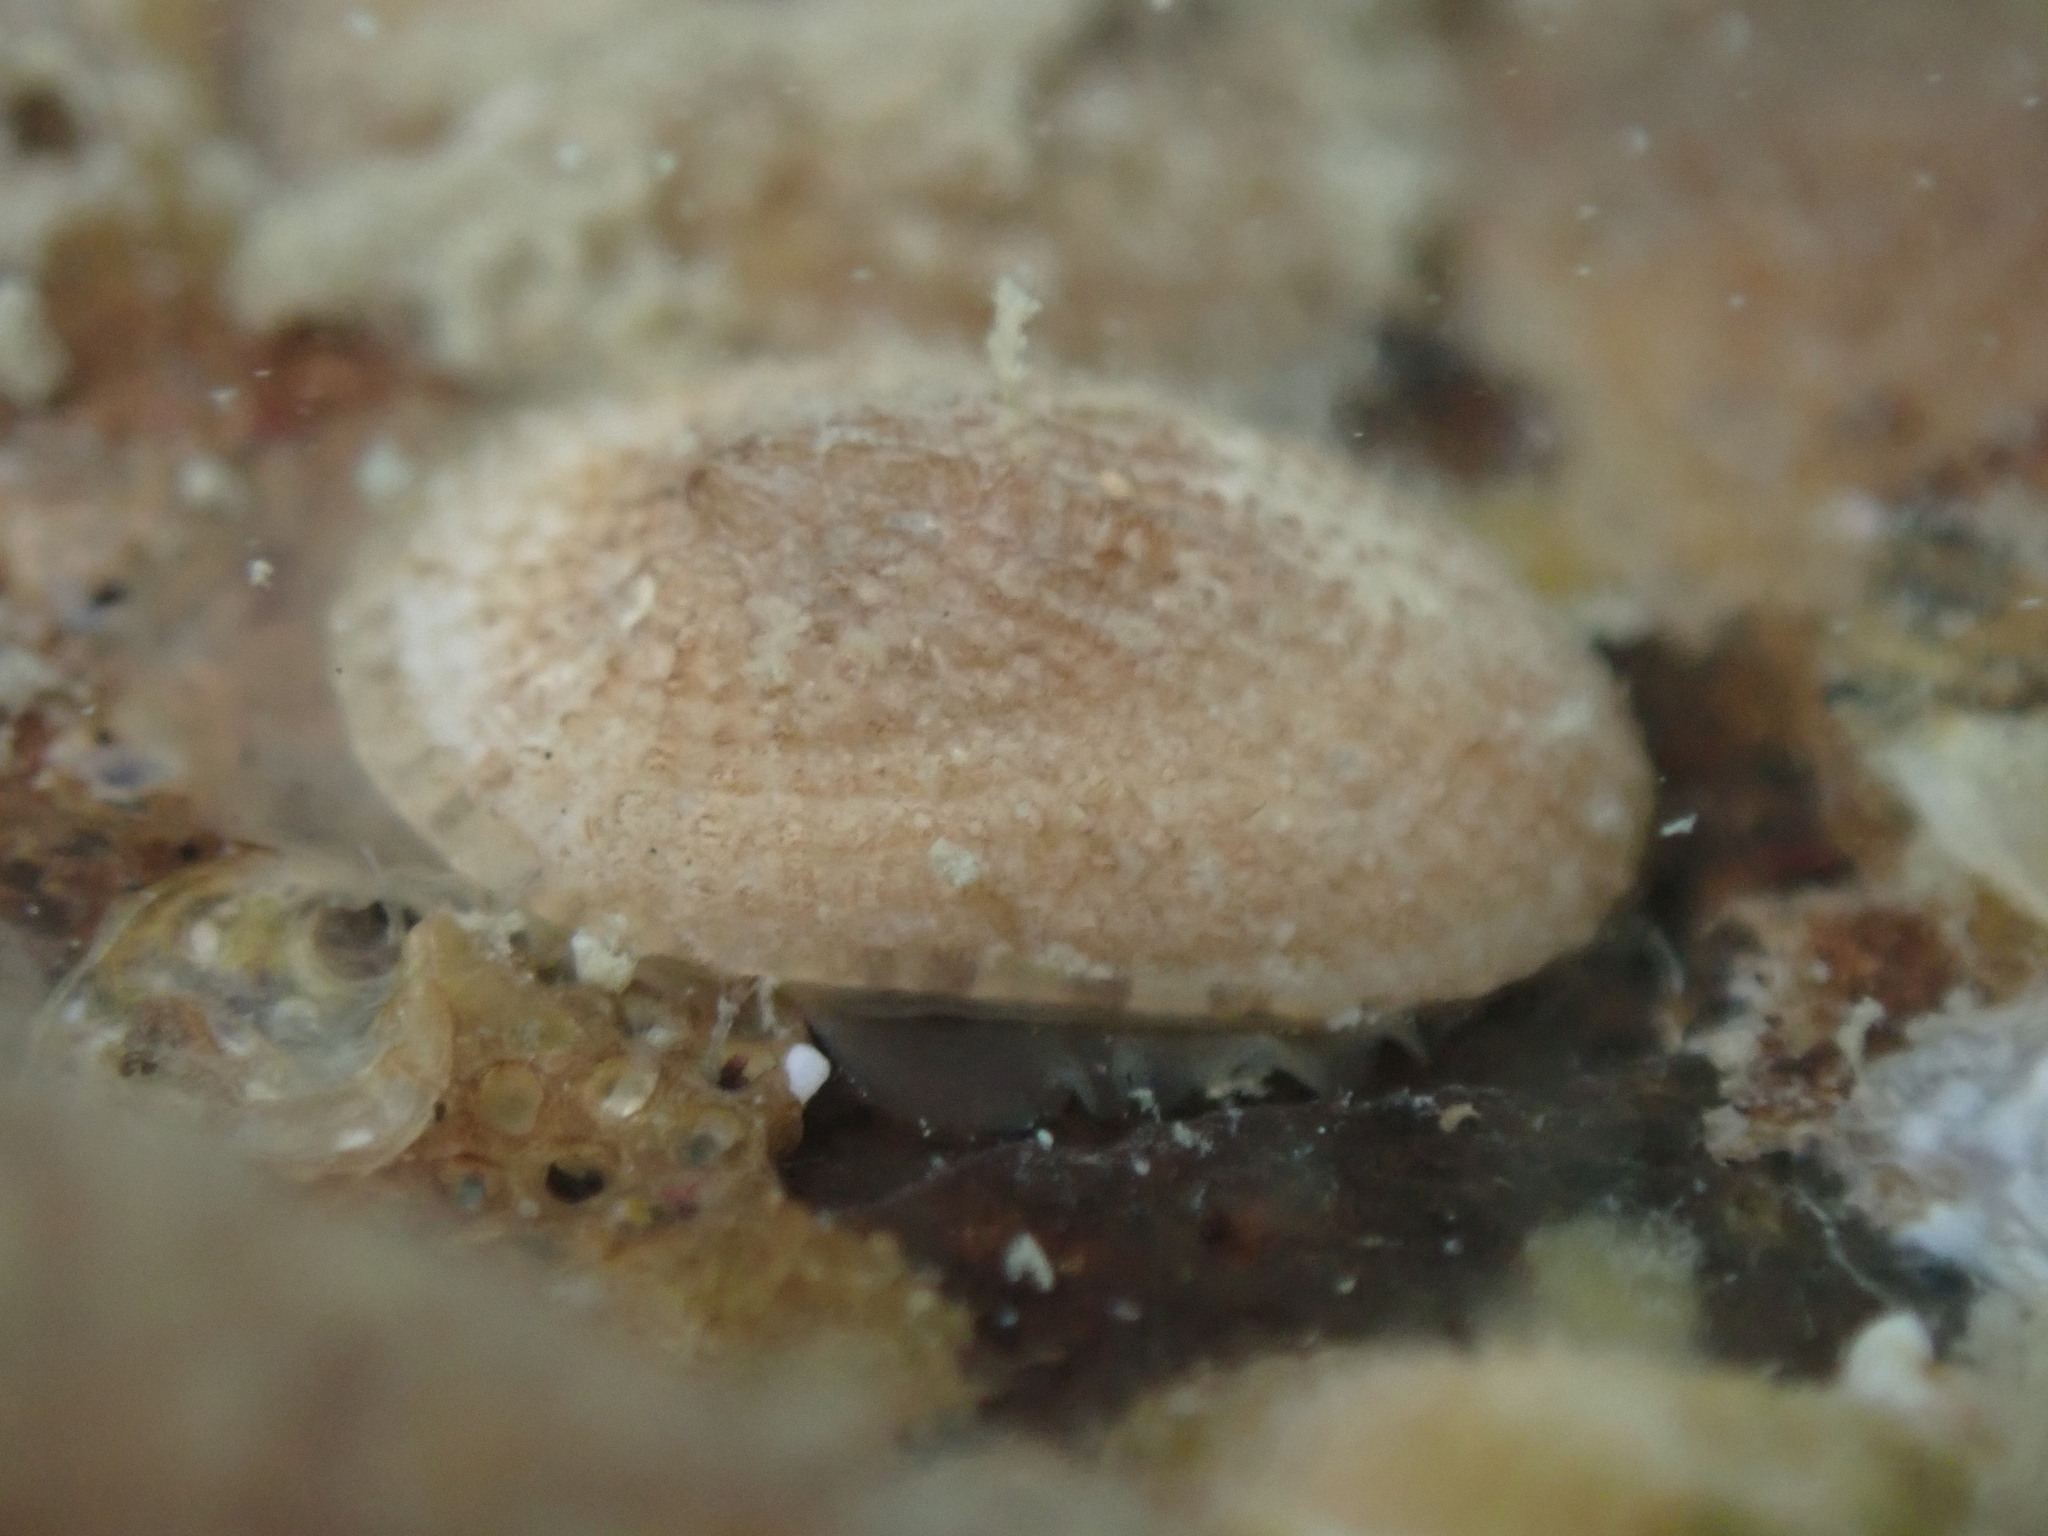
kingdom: Animalia
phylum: Mollusca
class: Gastropoda
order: Lepetellida
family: Fissurellidae
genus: Tugali
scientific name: Tugali suteri
